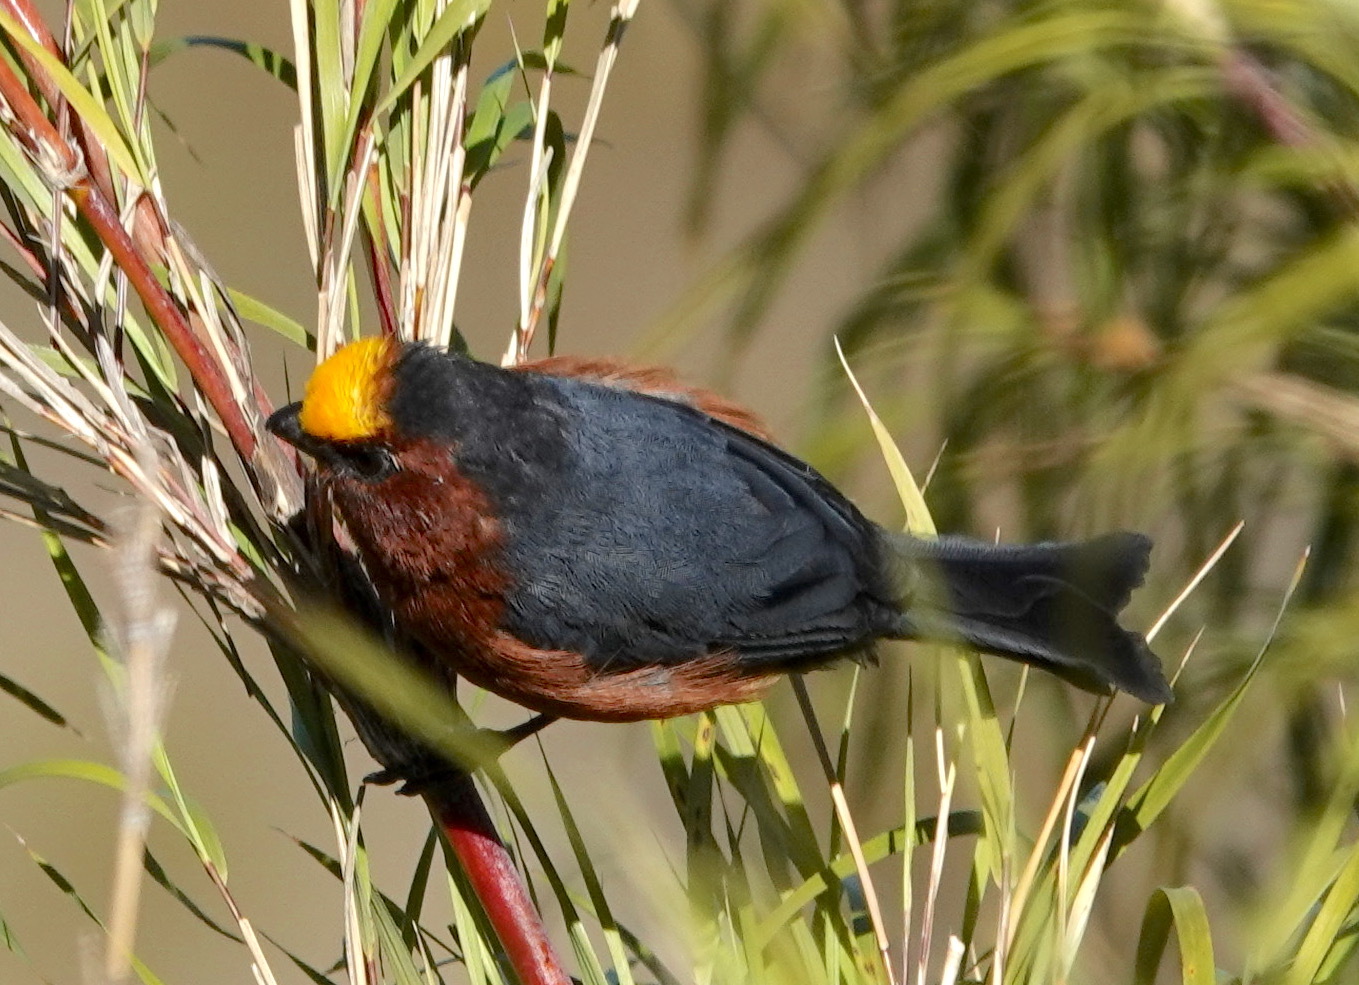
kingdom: Animalia
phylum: Chordata
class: Aves
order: Passeriformes
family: Thraupidae
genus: Catamblyrhynchus
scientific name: Catamblyrhynchus diadema
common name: Plushcap
